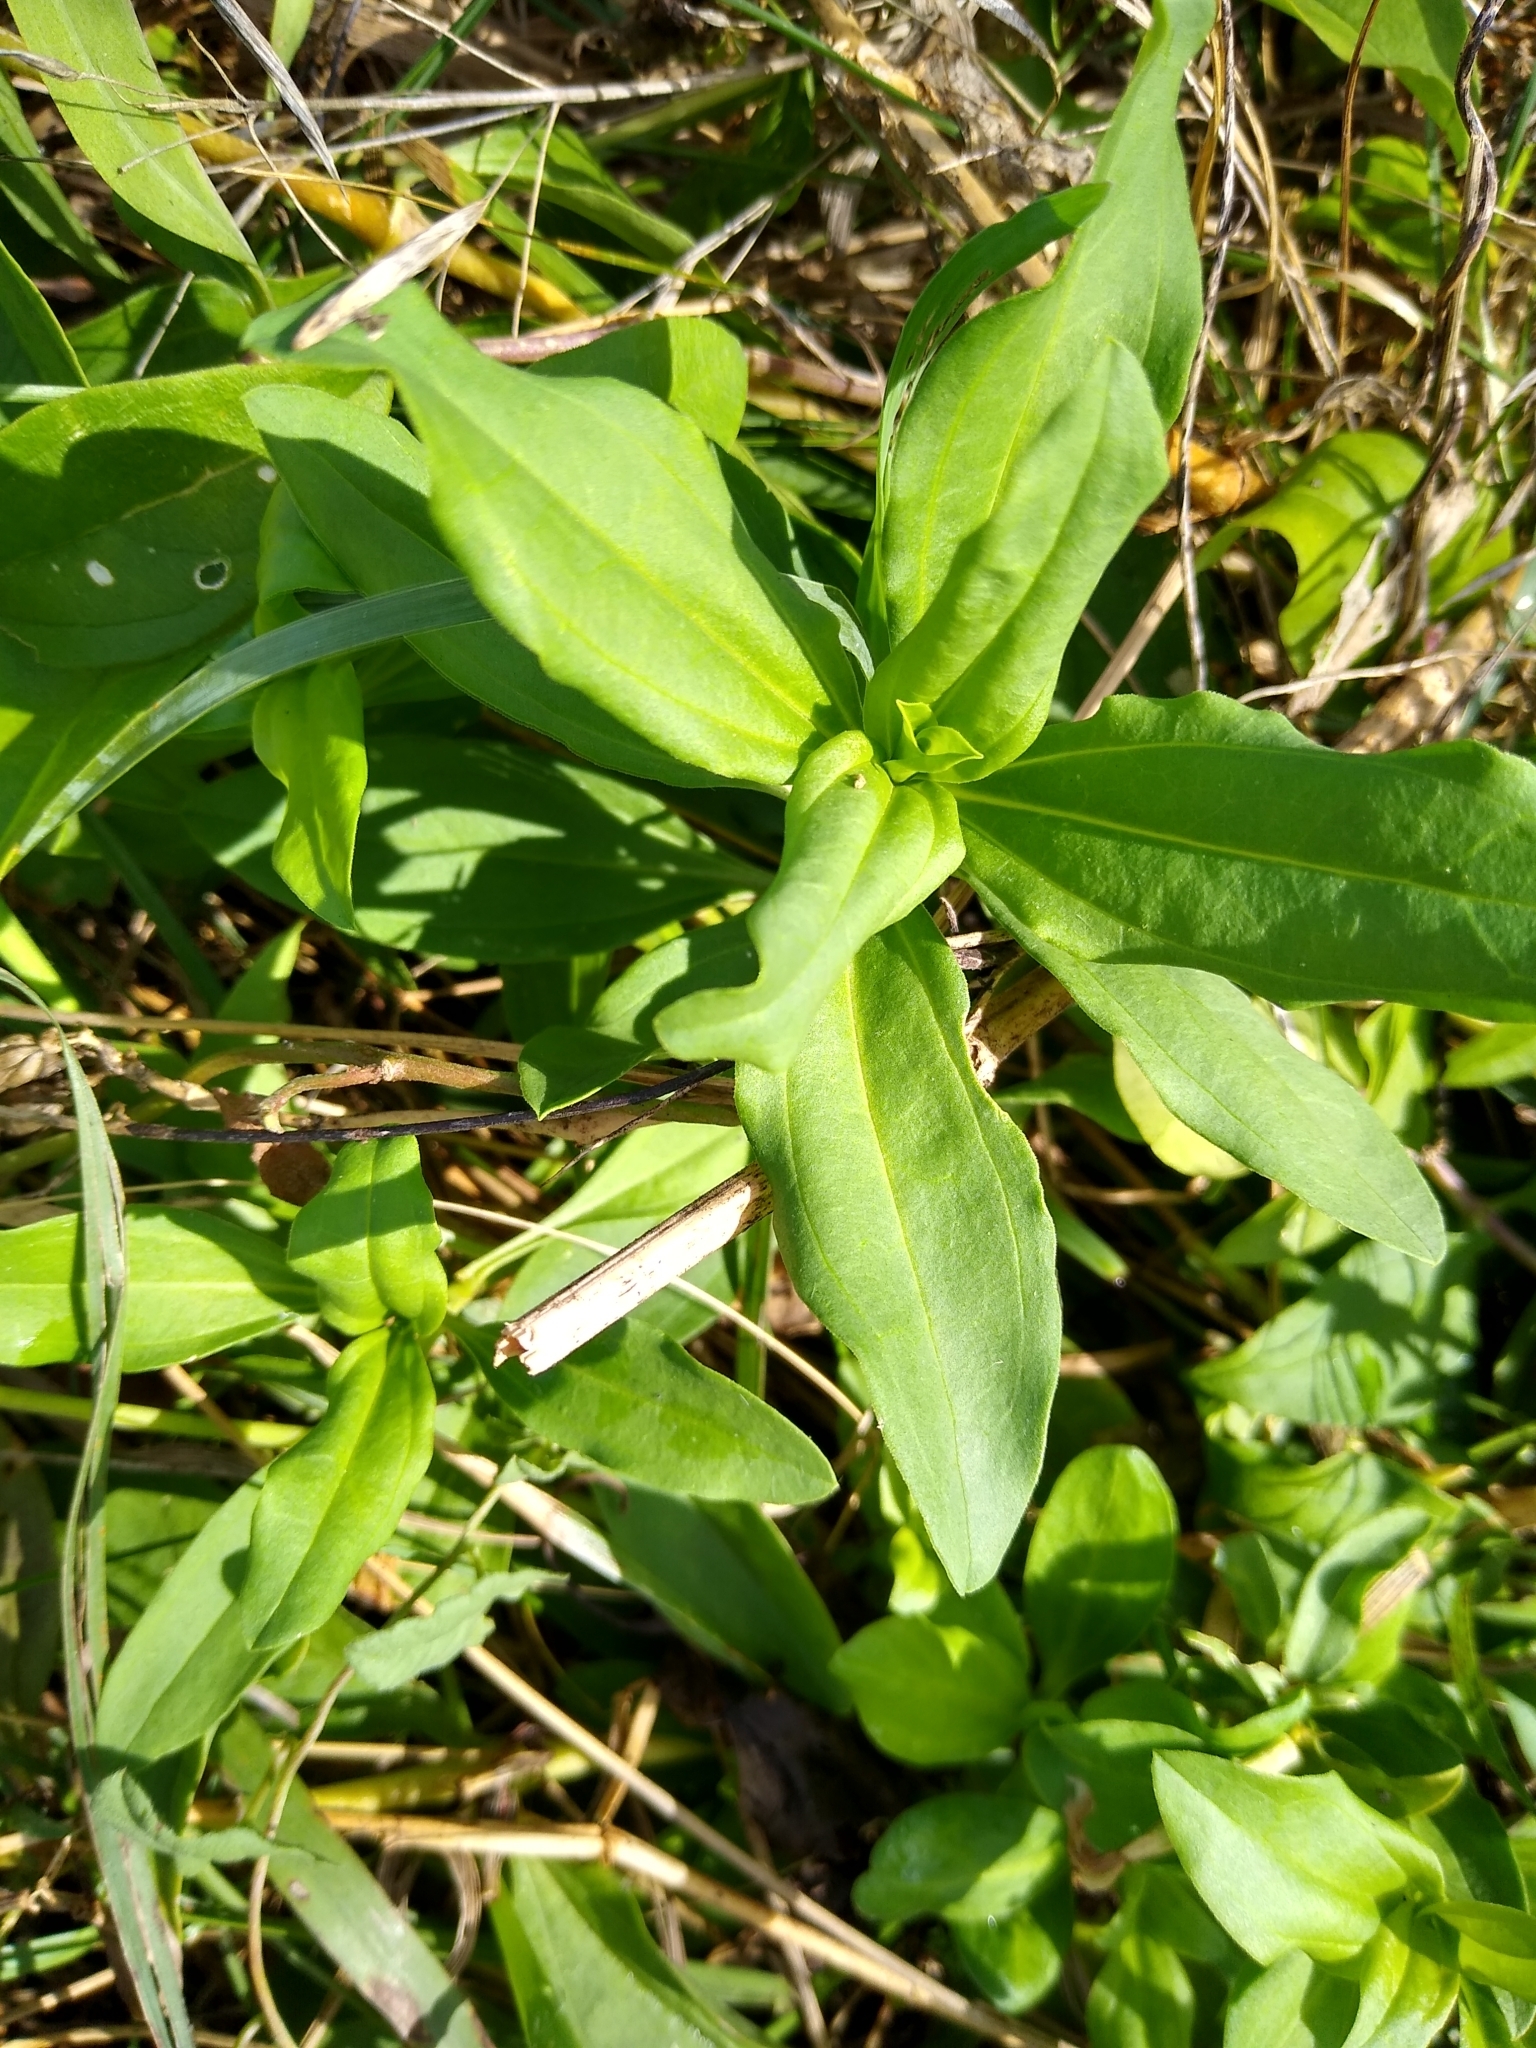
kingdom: Plantae
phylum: Tracheophyta
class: Magnoliopsida
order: Caryophyllales
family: Caryophyllaceae
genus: Saponaria
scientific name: Saponaria officinalis
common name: Soapwort
